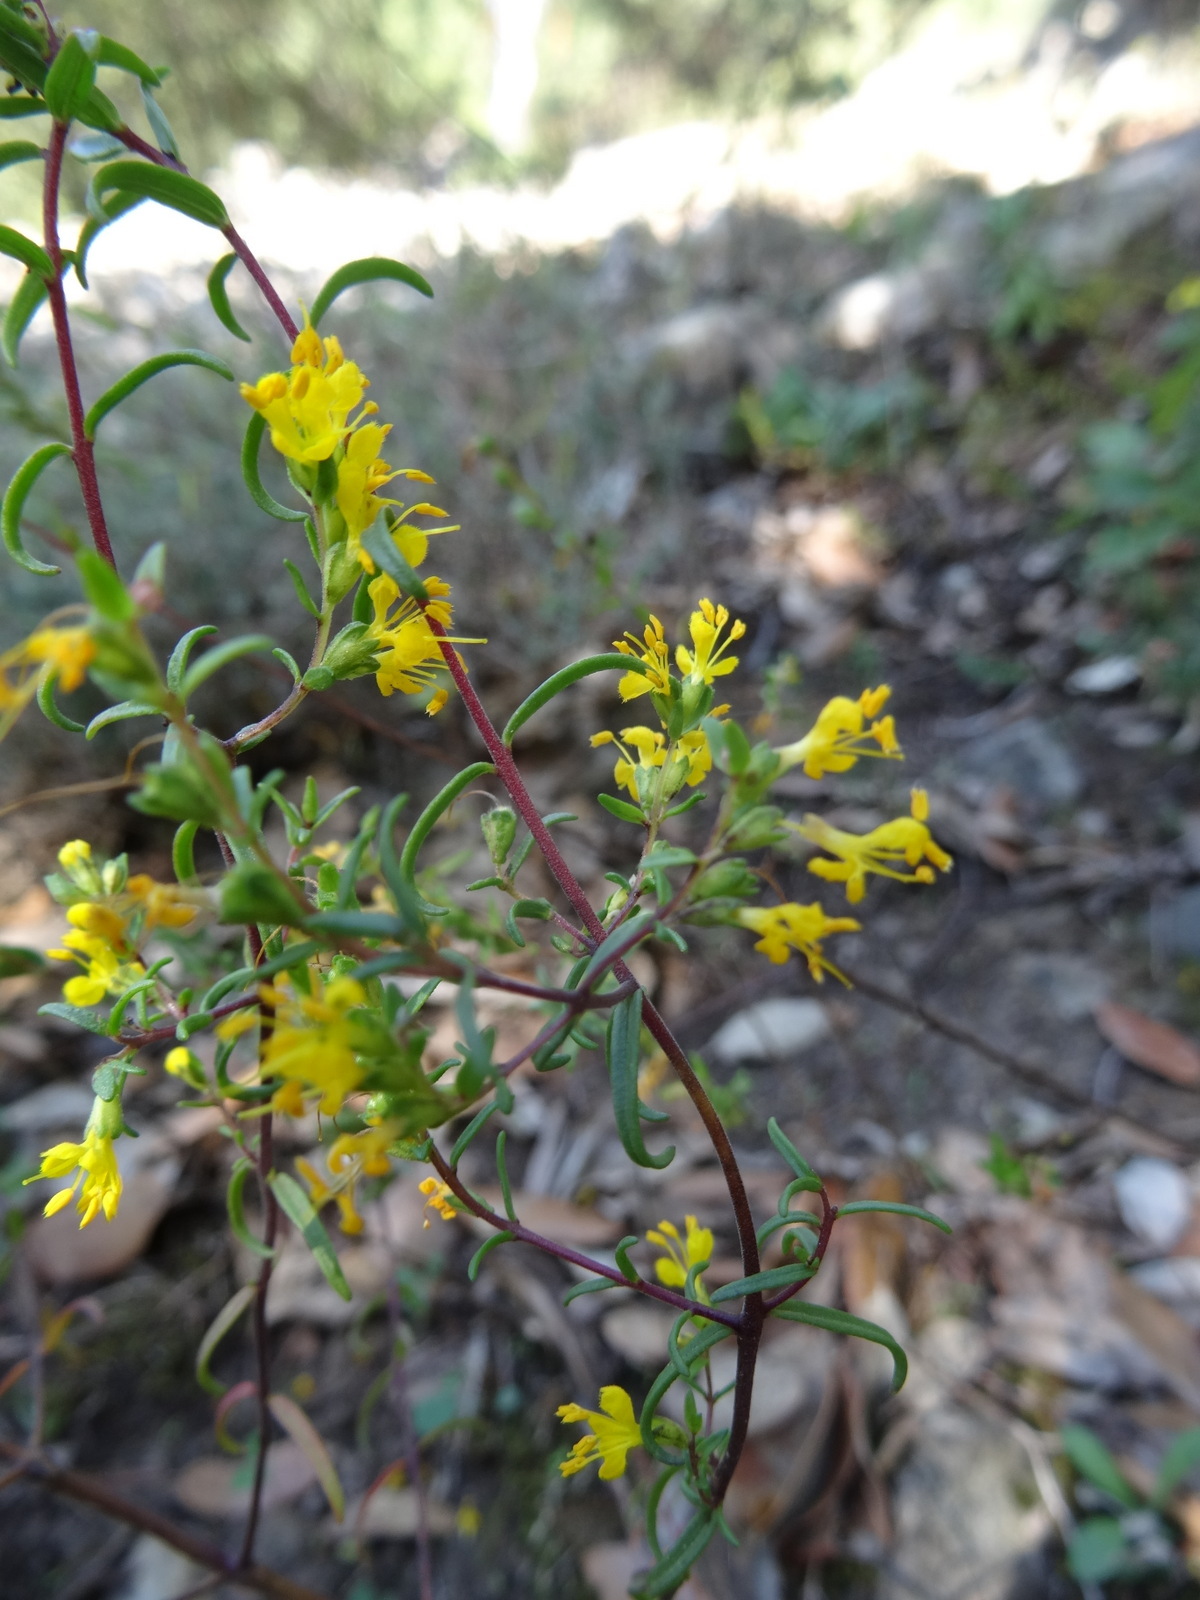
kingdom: Plantae
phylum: Tracheophyta
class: Magnoliopsida
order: Lamiales
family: Orobanchaceae
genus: Odontites
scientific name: Odontites luteus
